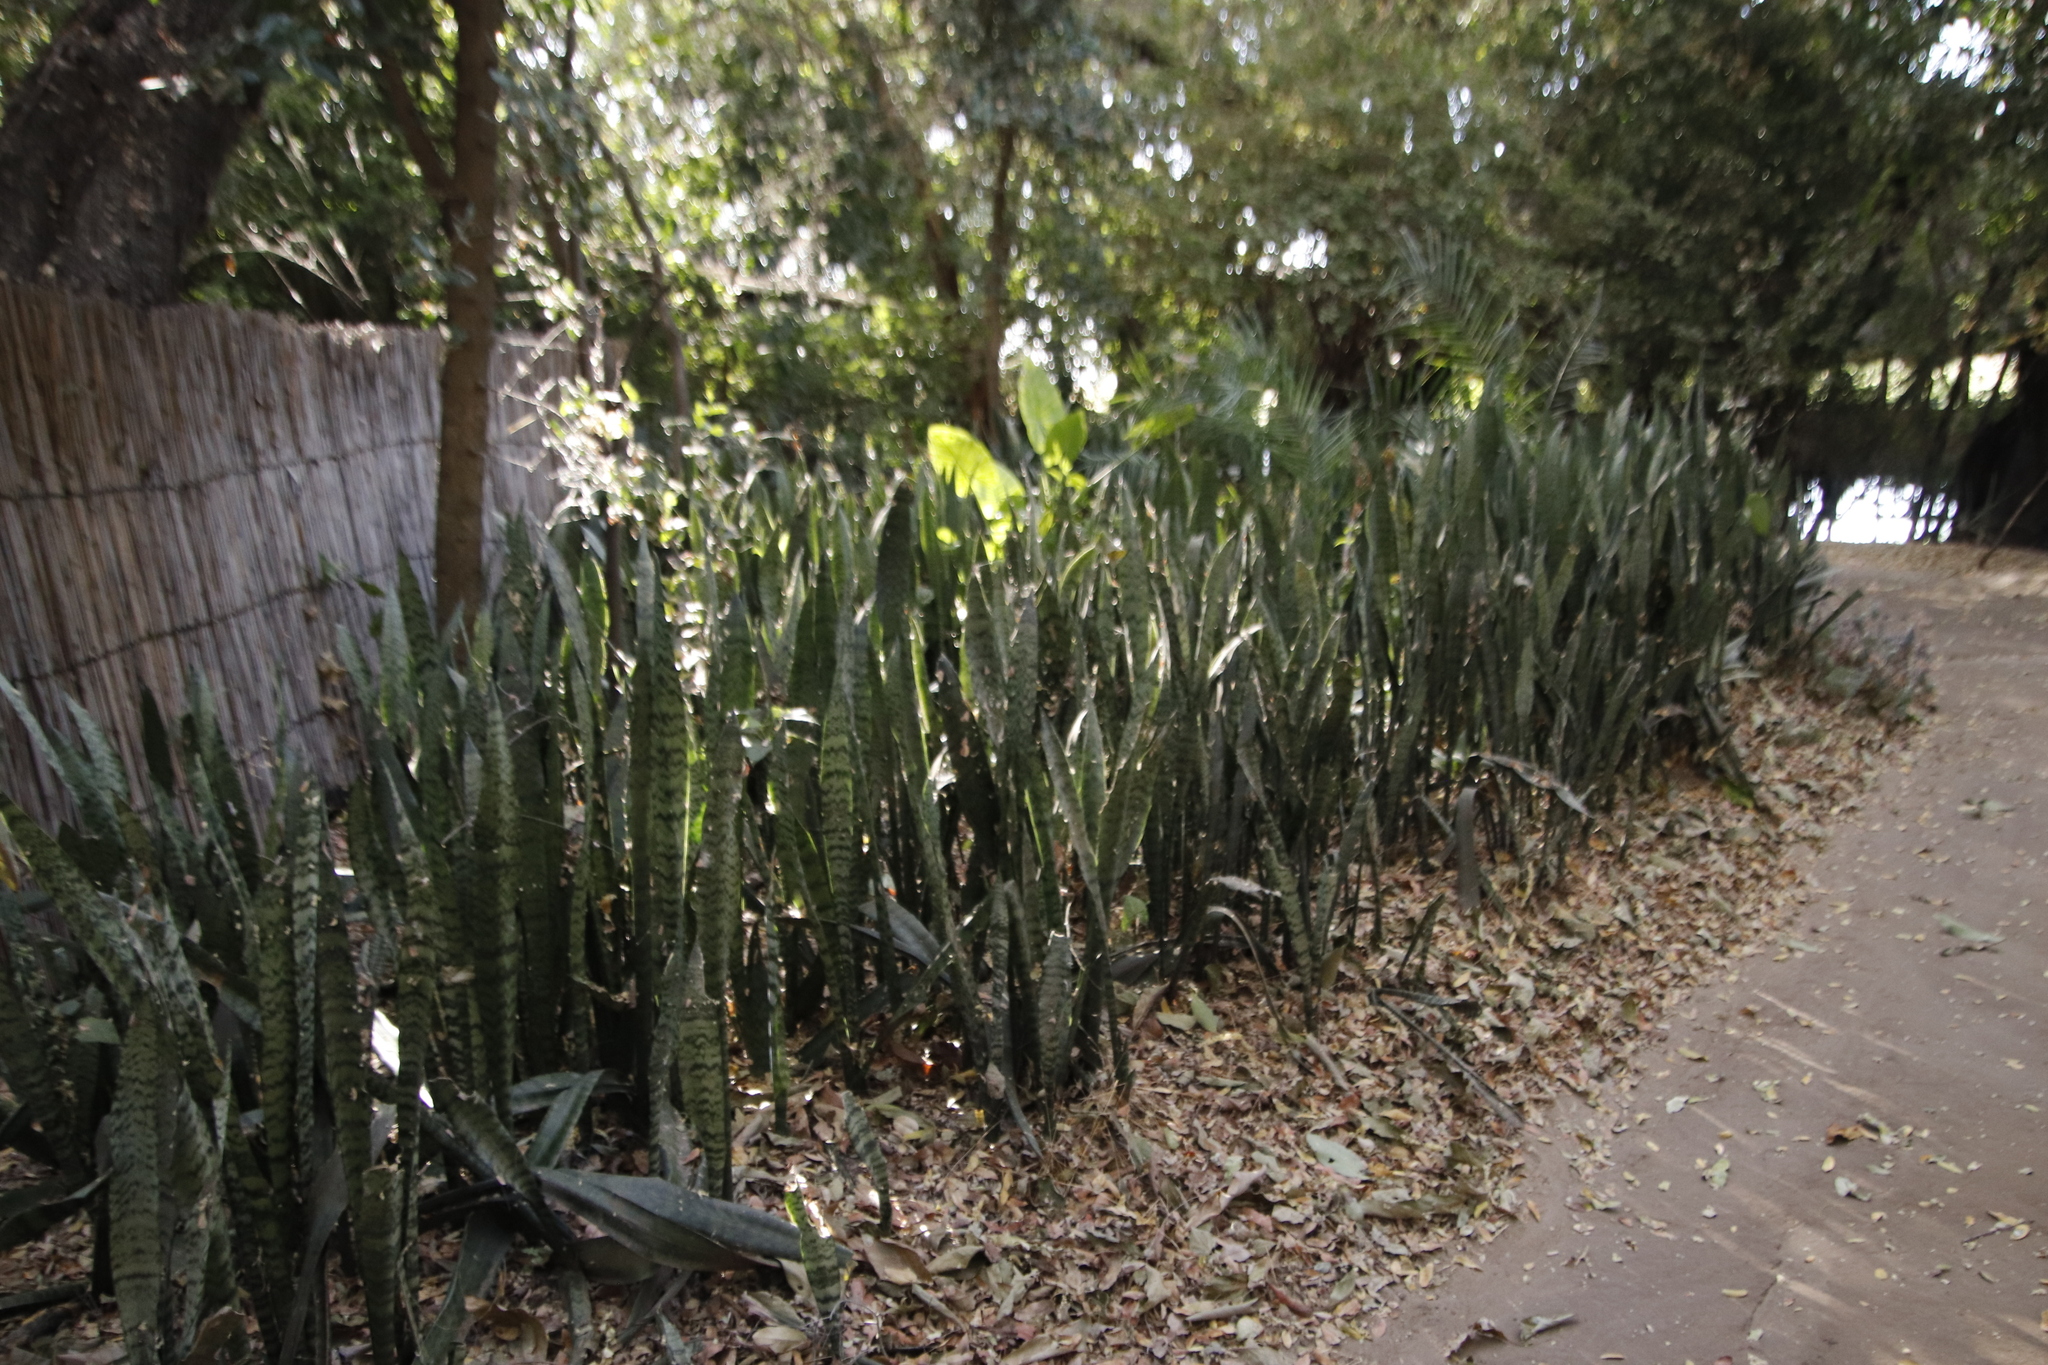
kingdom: Plantae
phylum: Tracheophyta
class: Liliopsida
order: Asparagales
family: Asparagaceae
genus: Dracaena
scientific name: Dracaena hyacinthoides
